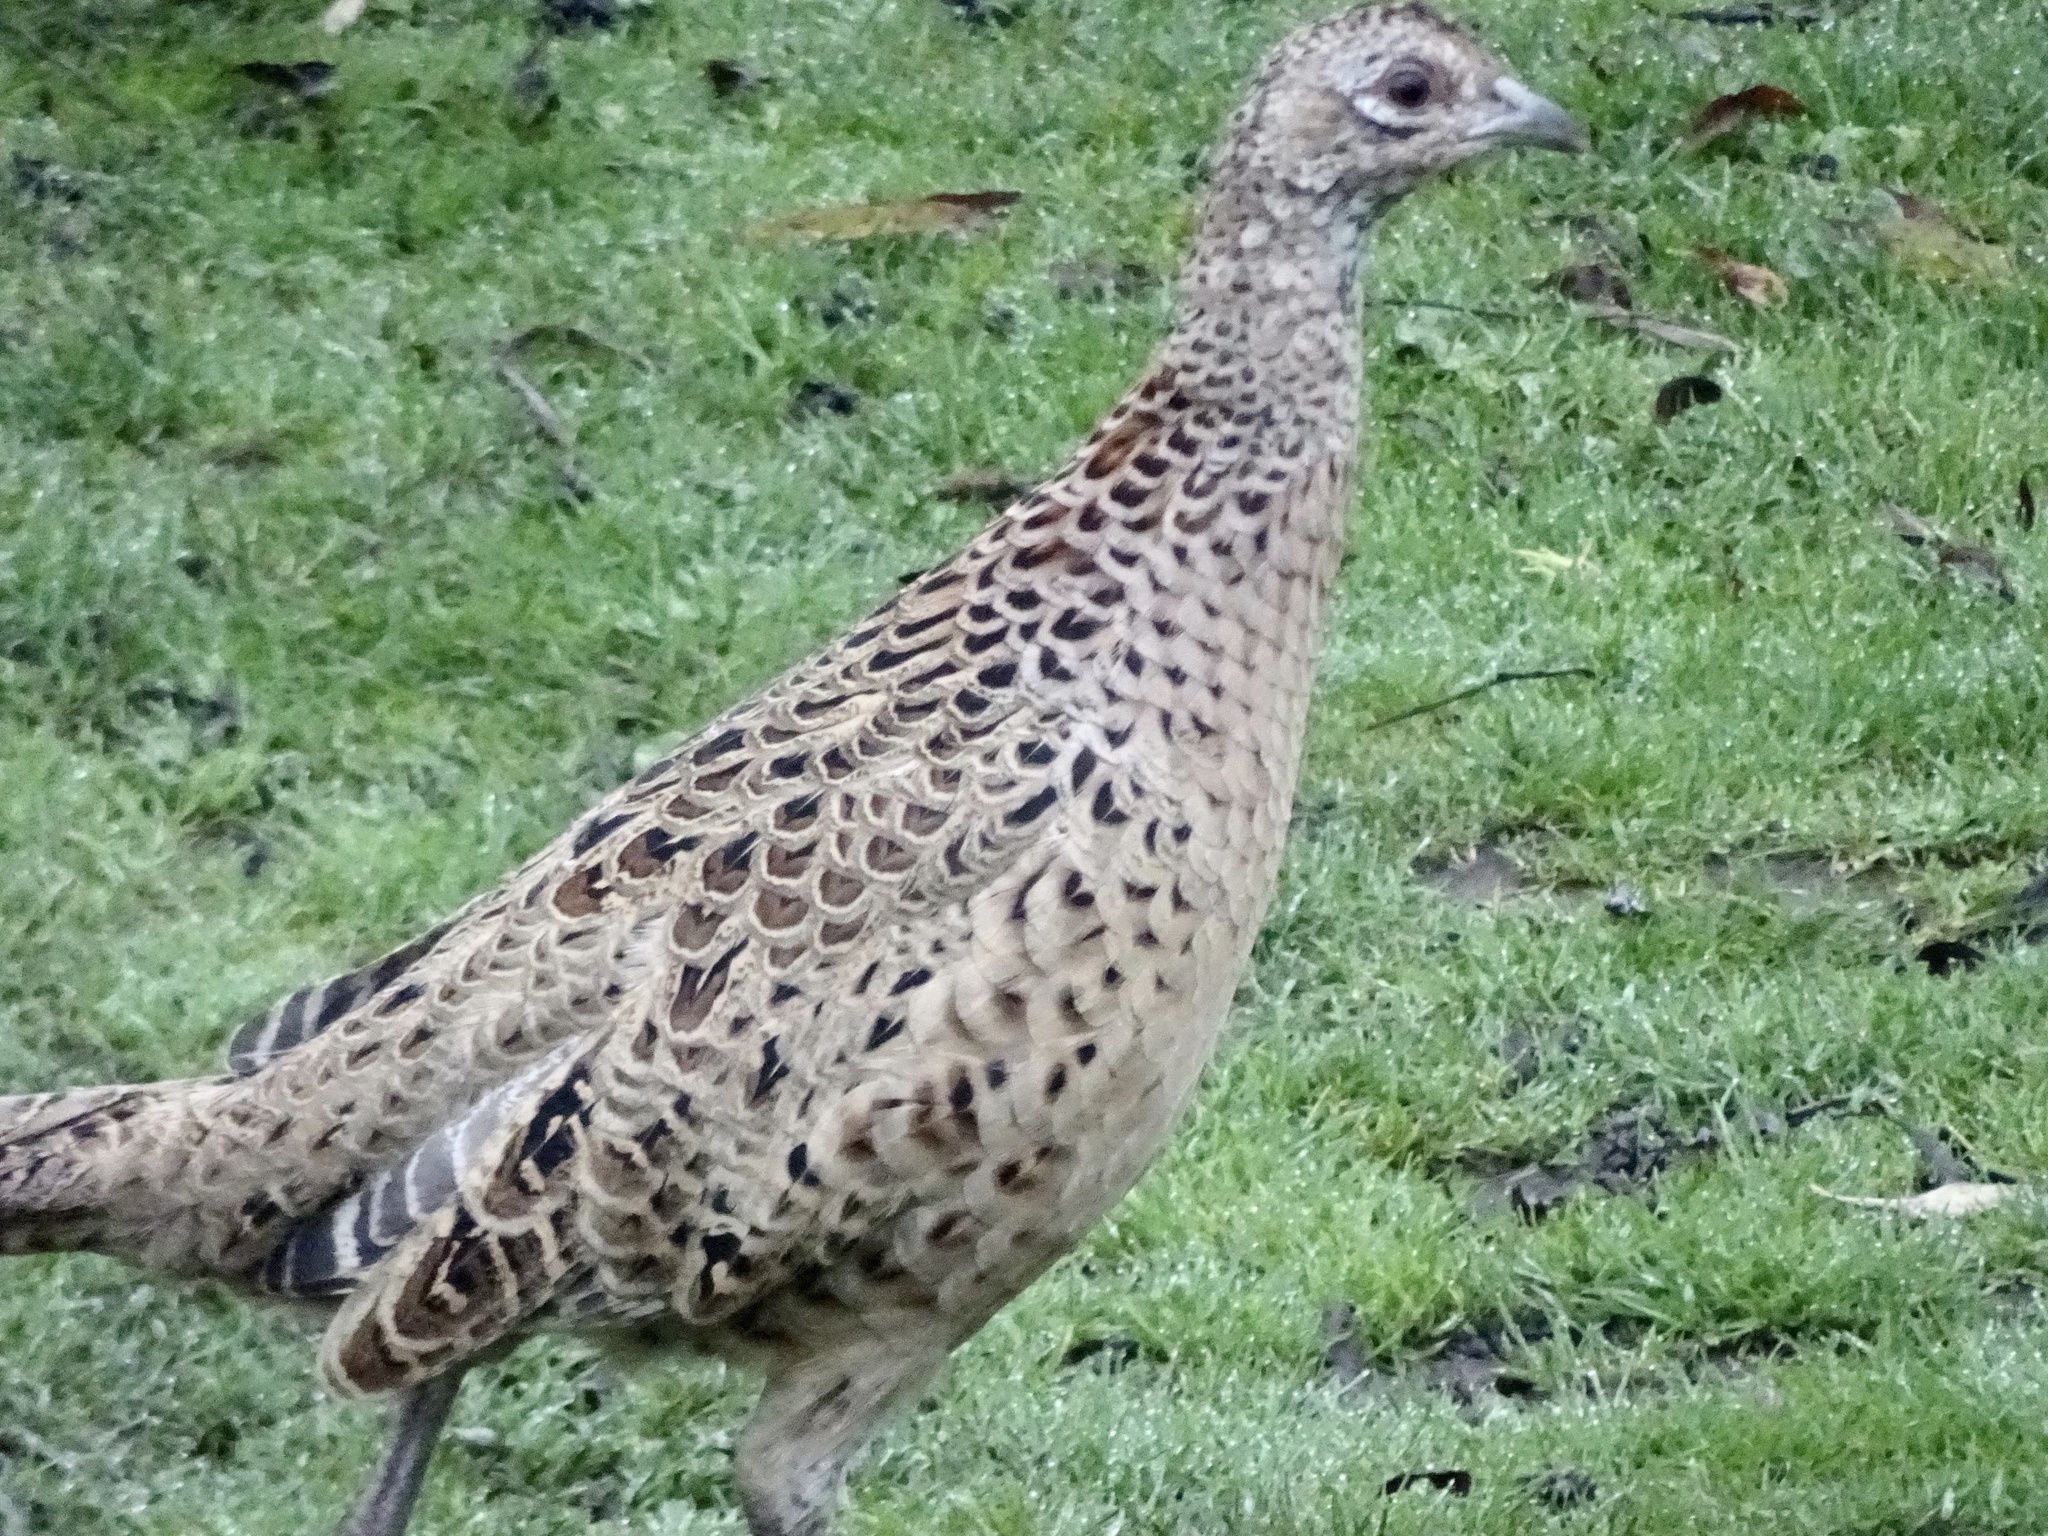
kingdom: Animalia
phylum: Chordata
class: Aves
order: Galliformes
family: Phasianidae
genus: Phasianus
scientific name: Phasianus colchicus
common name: Common pheasant
